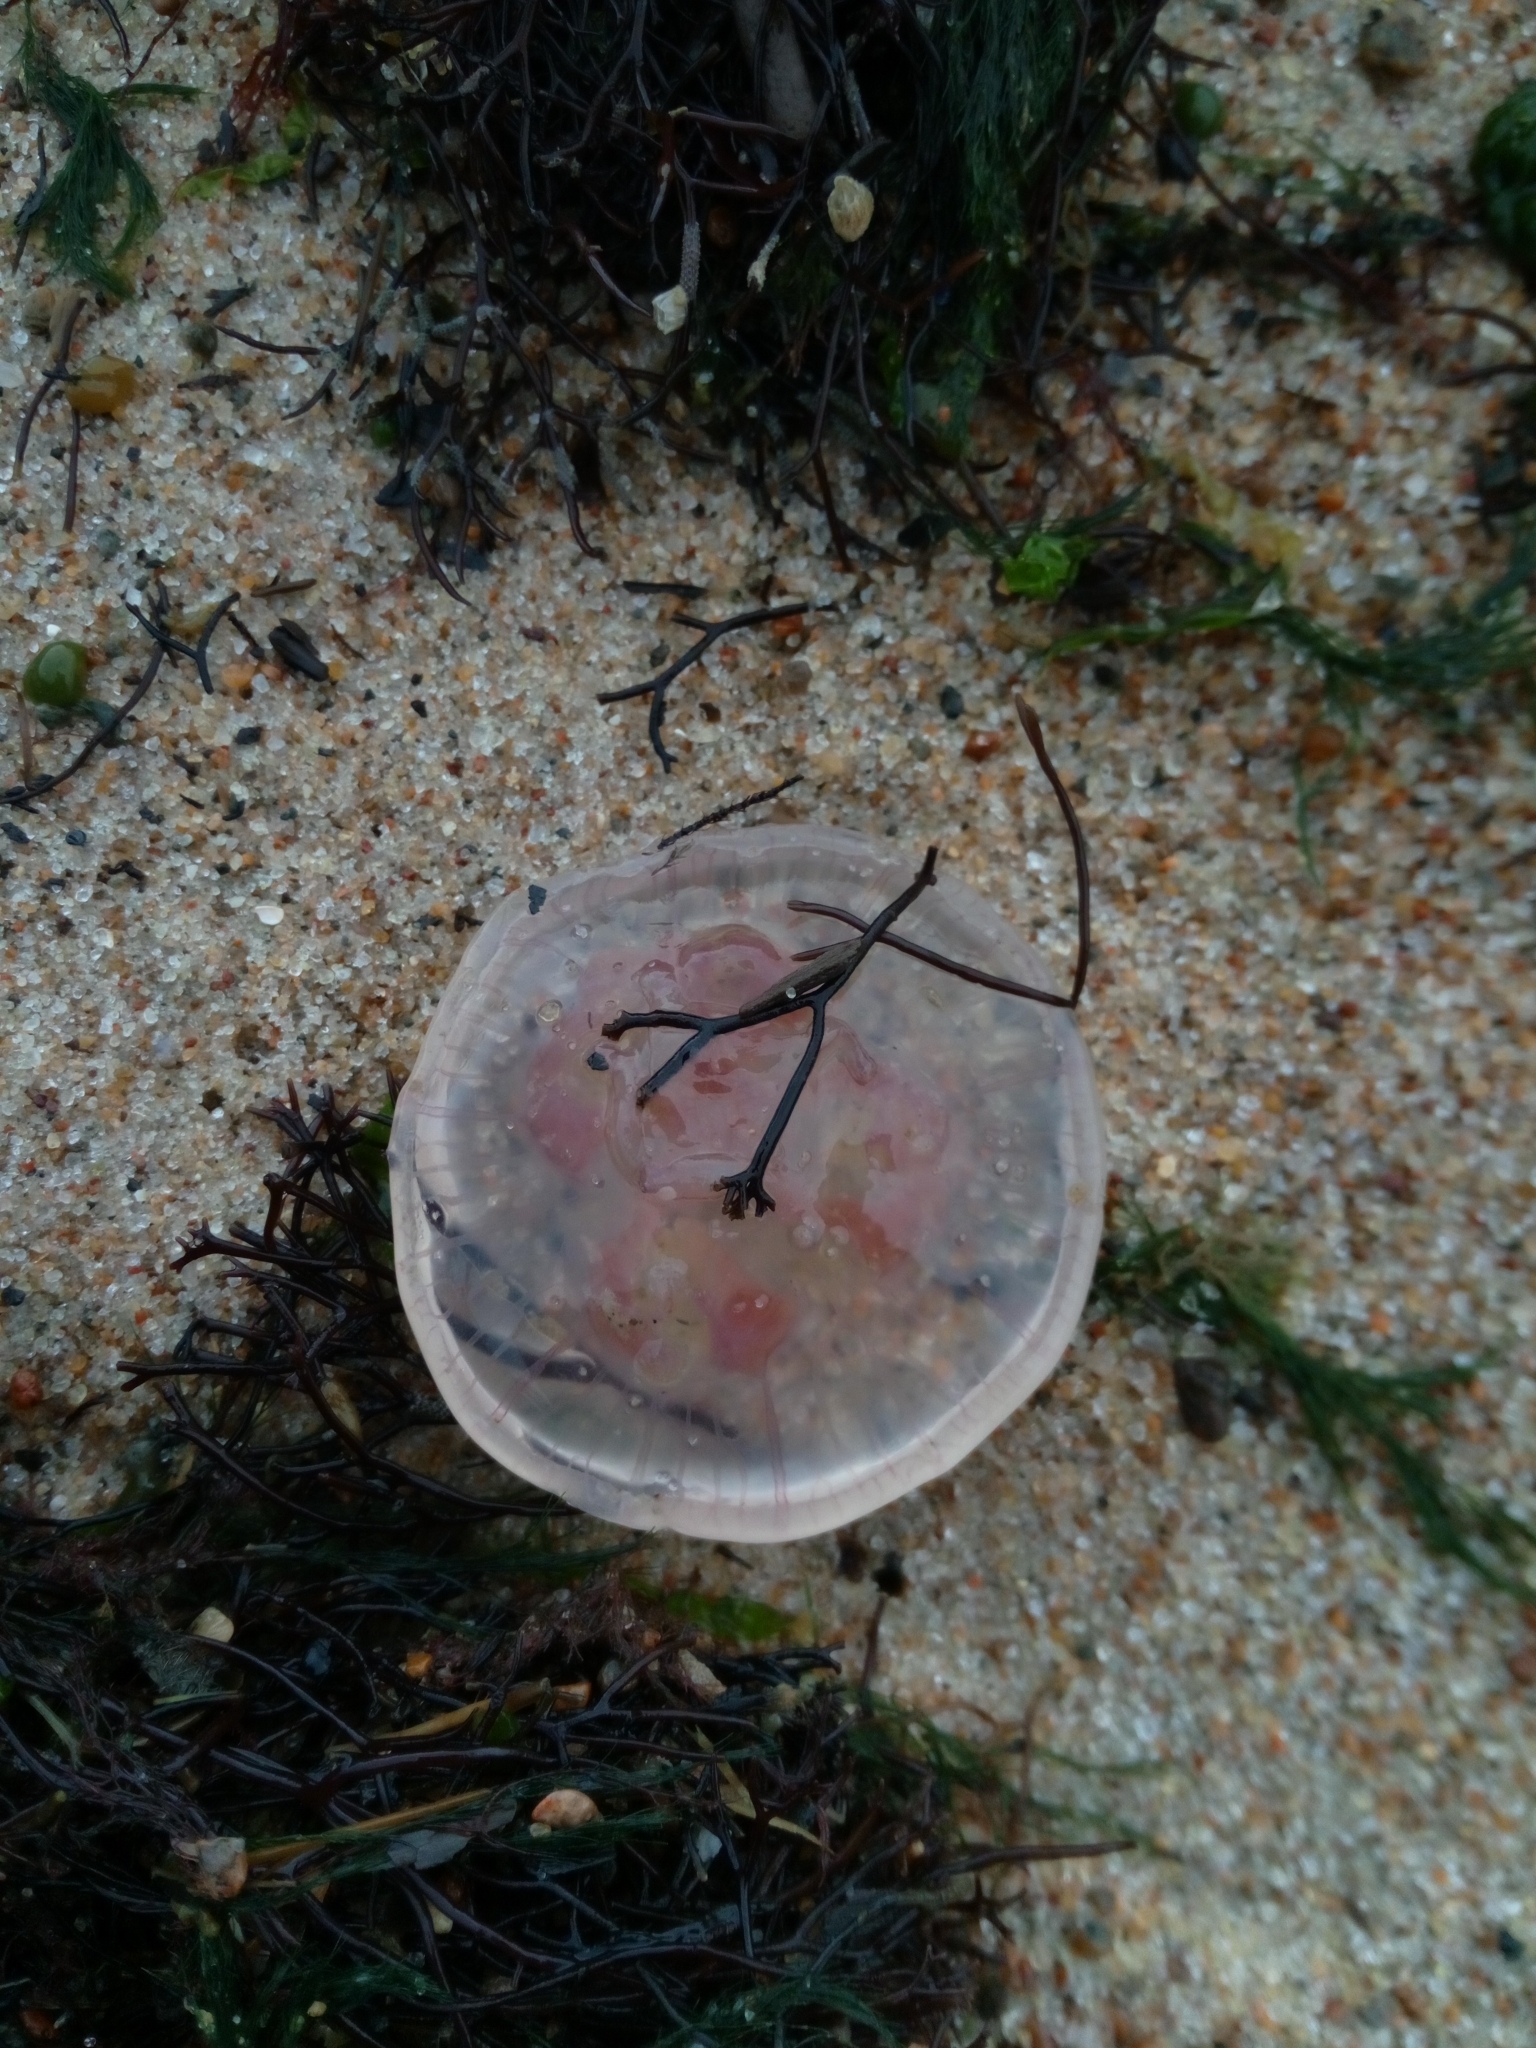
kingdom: Animalia
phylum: Cnidaria
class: Scyphozoa
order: Semaeostomeae
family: Ulmaridae
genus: Aurelia
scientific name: Aurelia aurita
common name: Moon jellyfish
